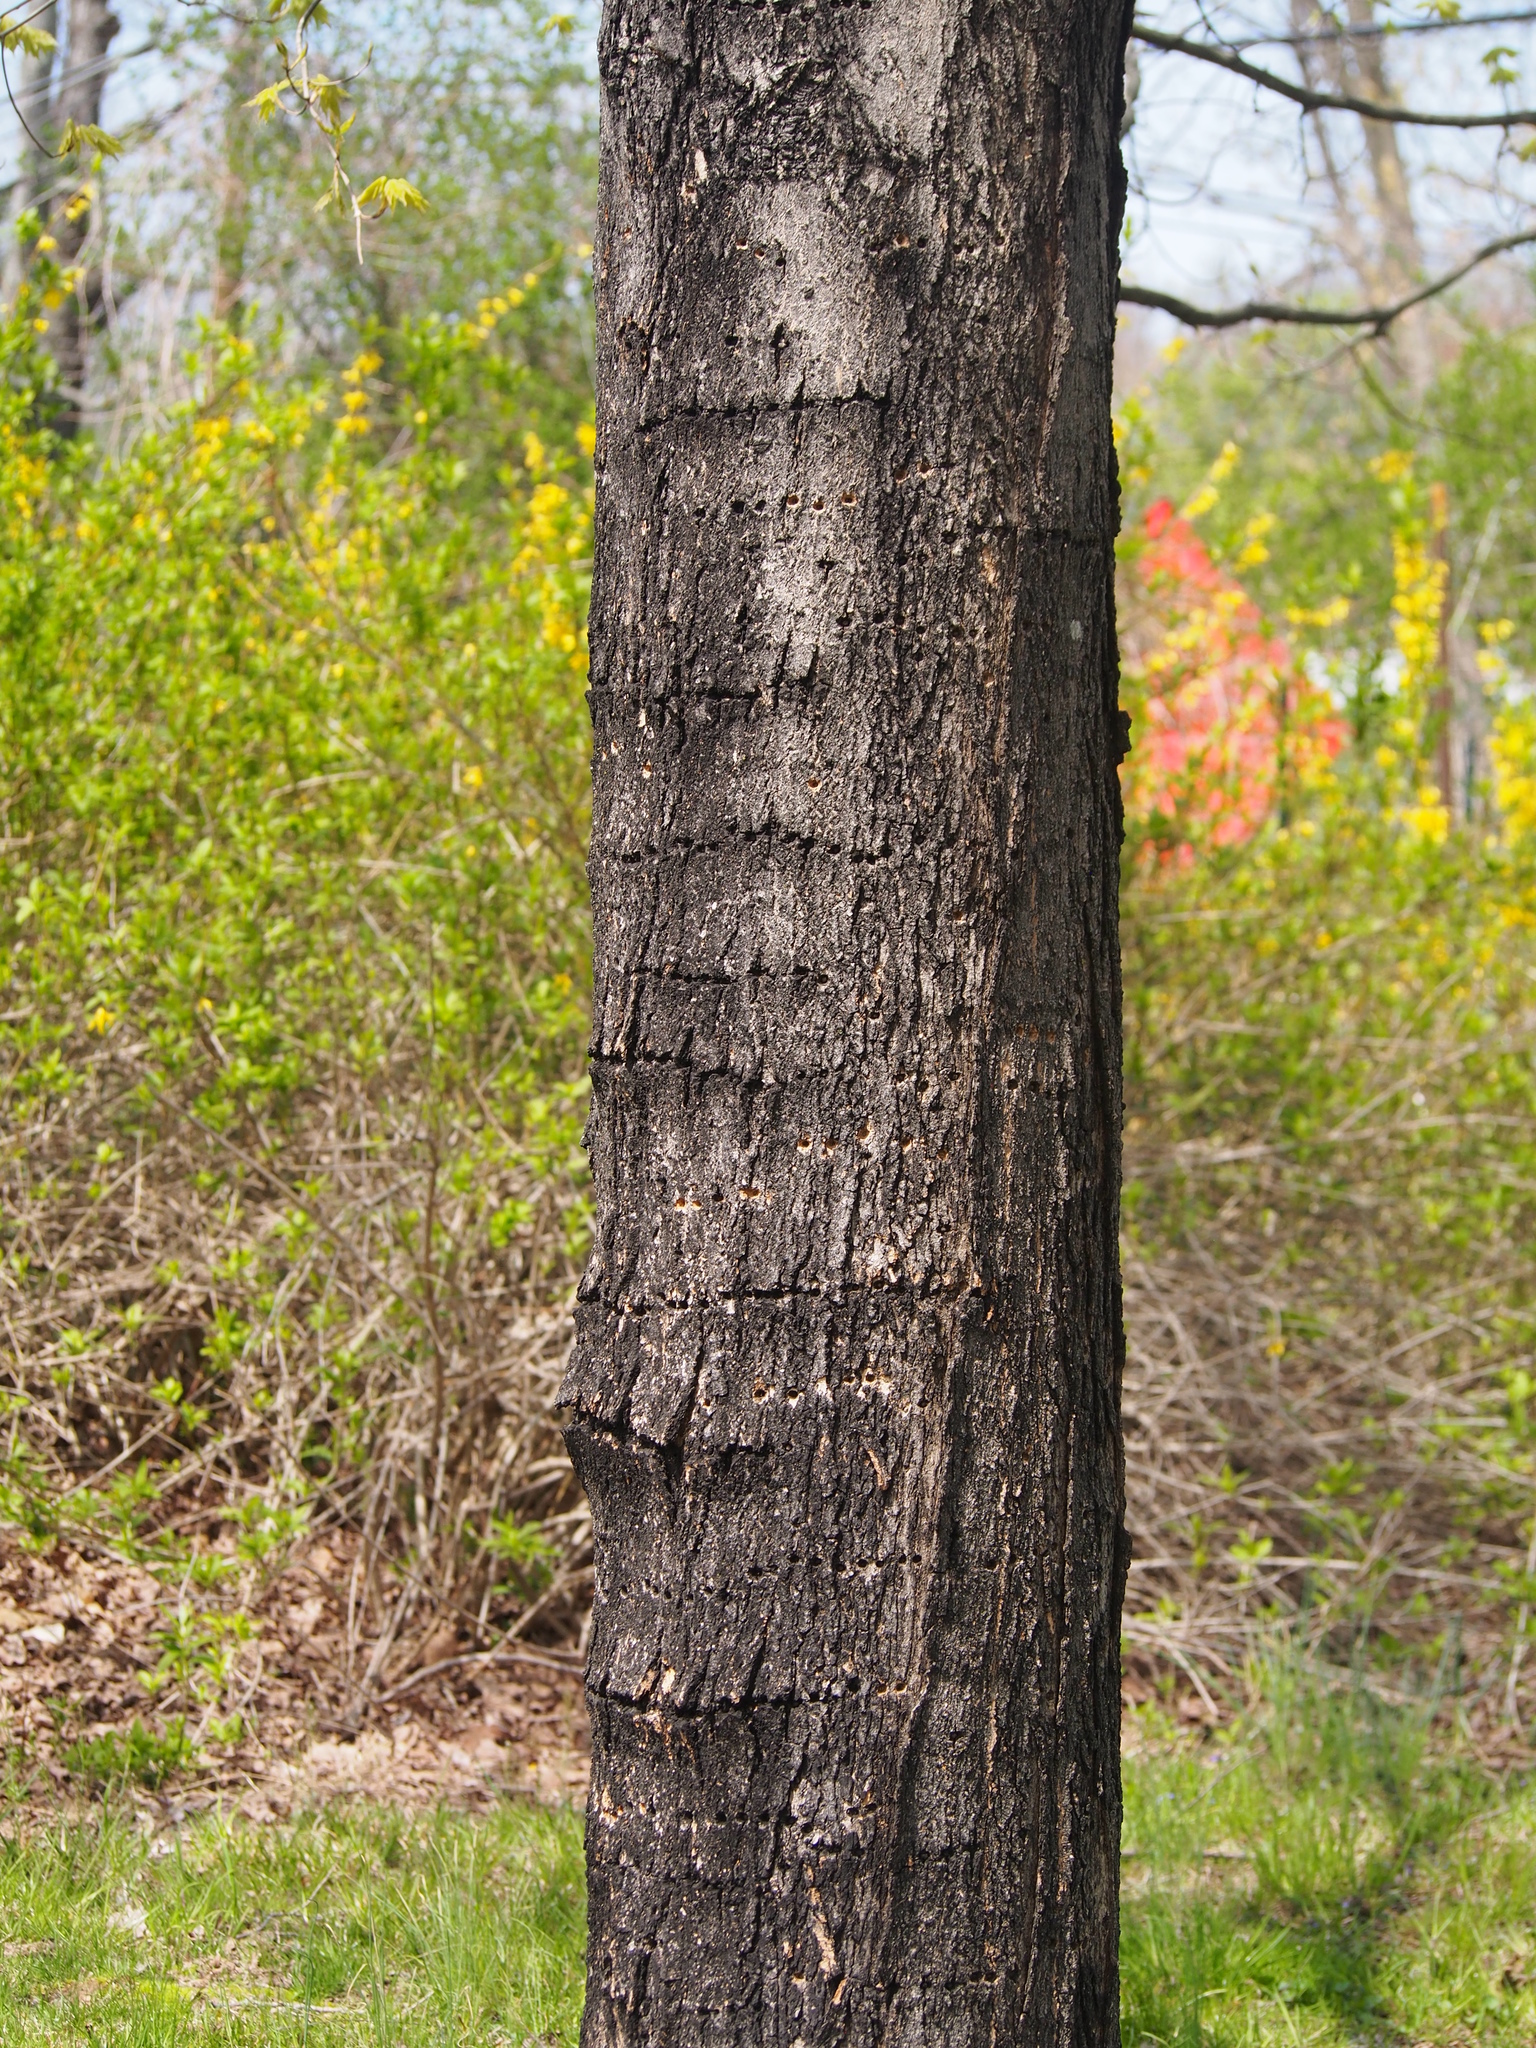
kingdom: Animalia
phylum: Chordata
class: Aves
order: Piciformes
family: Picidae
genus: Sphyrapicus
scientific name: Sphyrapicus varius
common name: Yellow-bellied sapsucker
